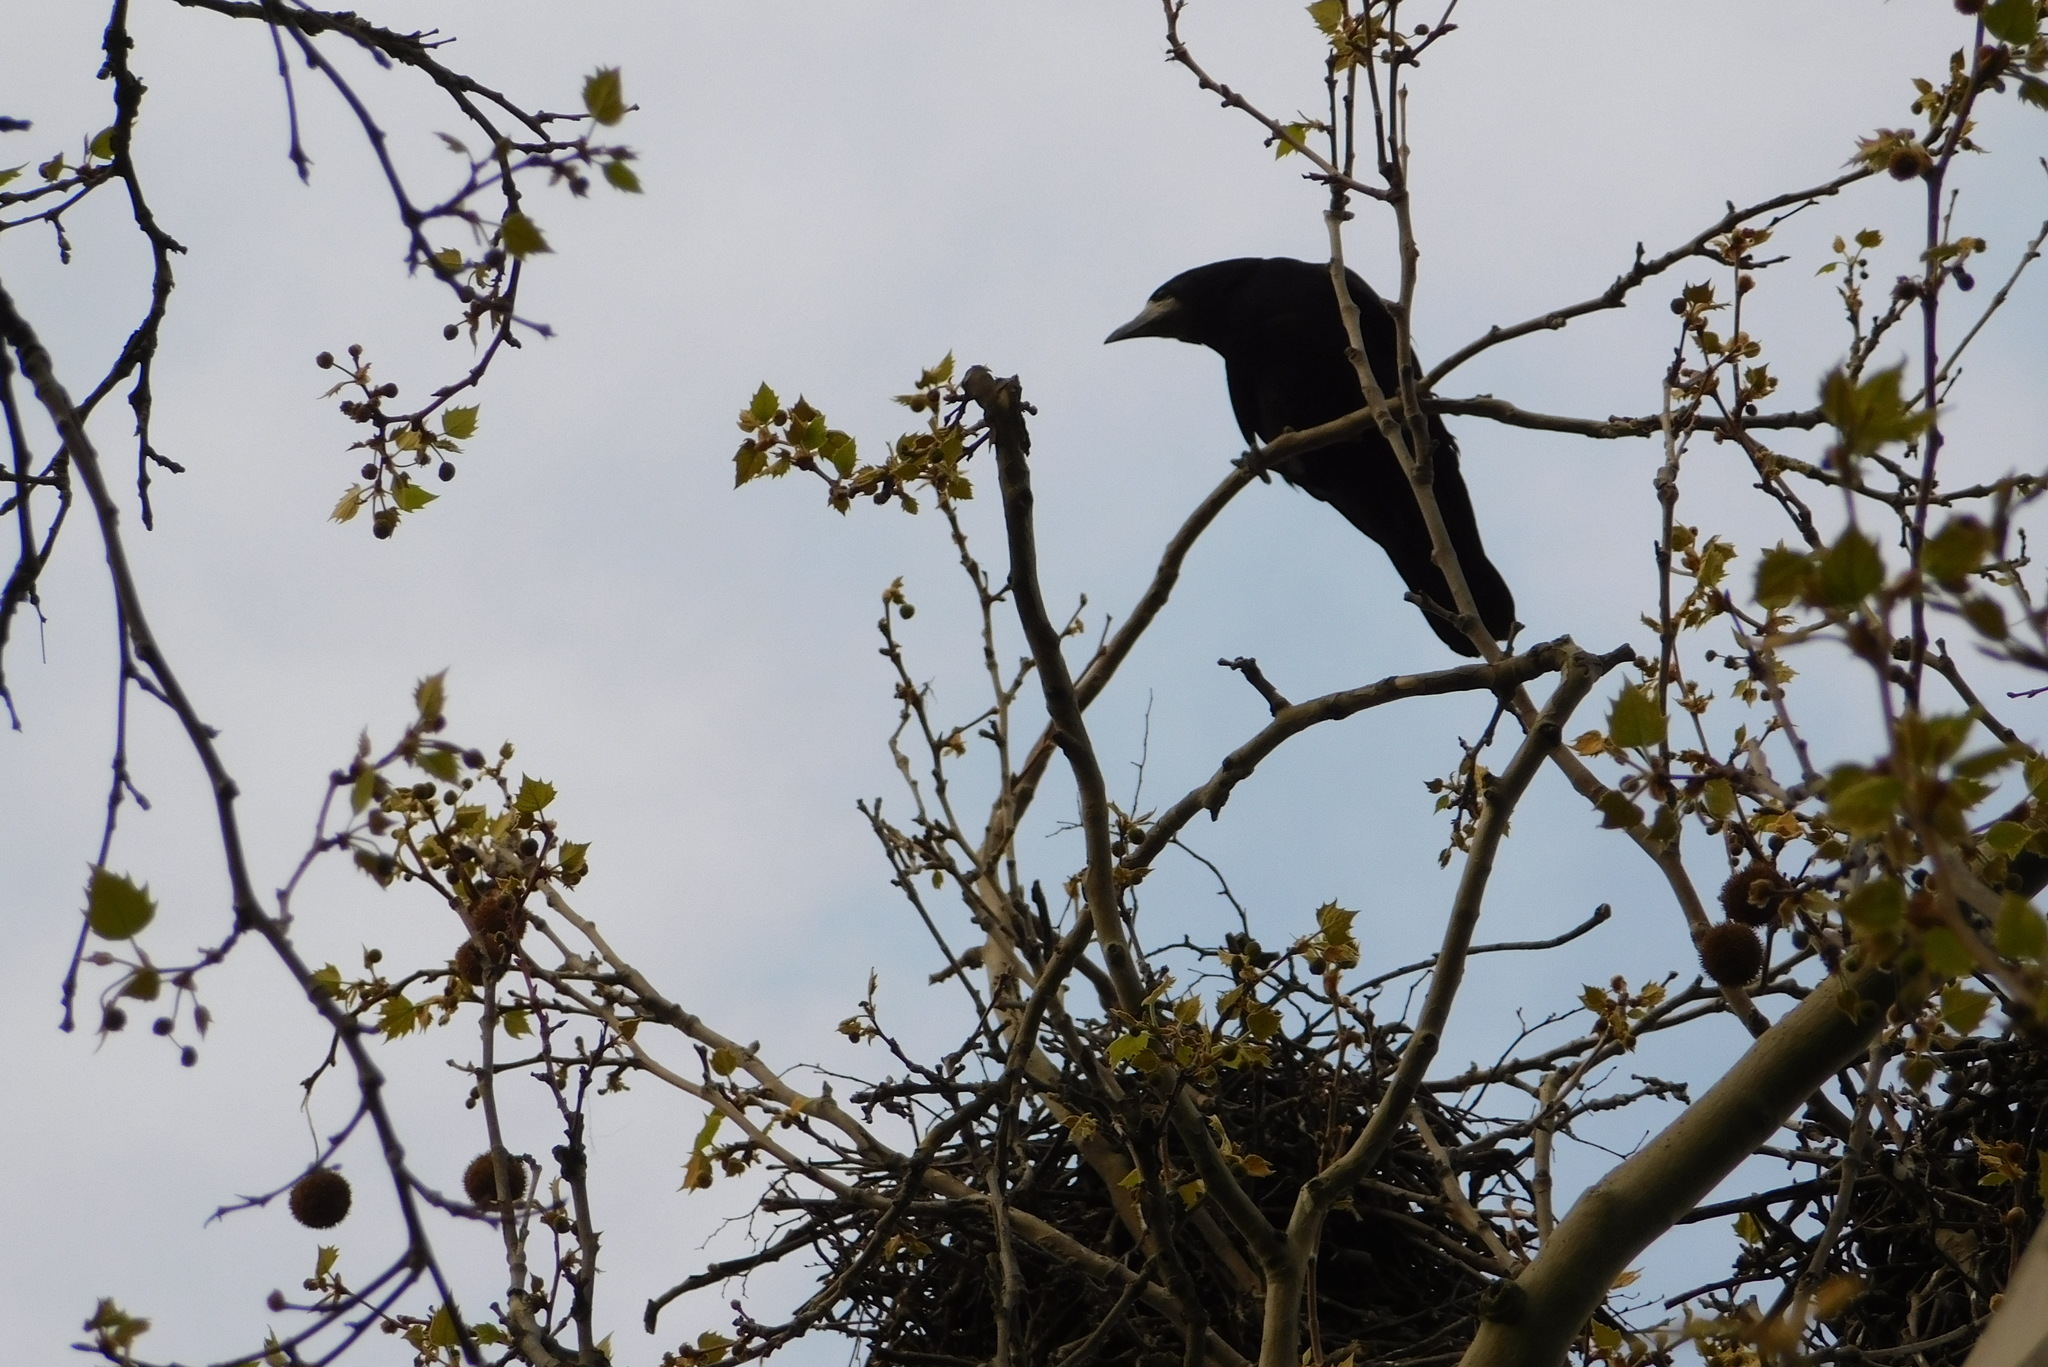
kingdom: Animalia
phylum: Chordata
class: Aves
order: Passeriformes
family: Corvidae
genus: Corvus
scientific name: Corvus frugilegus
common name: Rook
